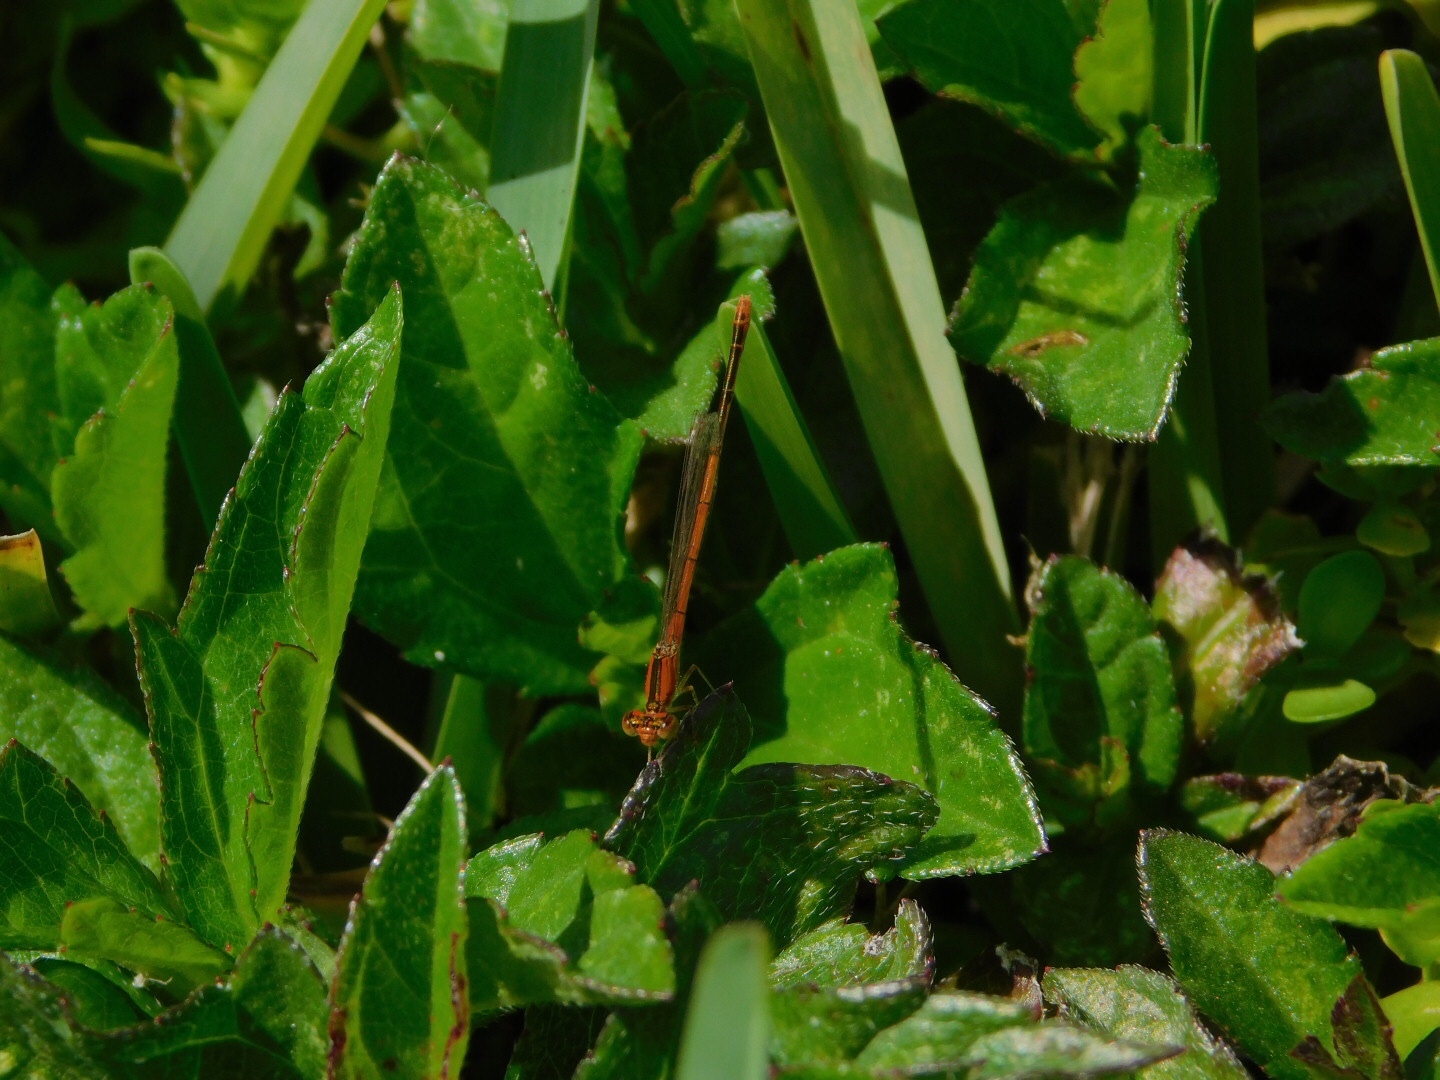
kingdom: Animalia
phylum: Arthropoda
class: Insecta
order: Odonata
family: Coenagrionidae
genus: Ischnura
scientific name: Ischnura hastata
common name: Citrine forktail
